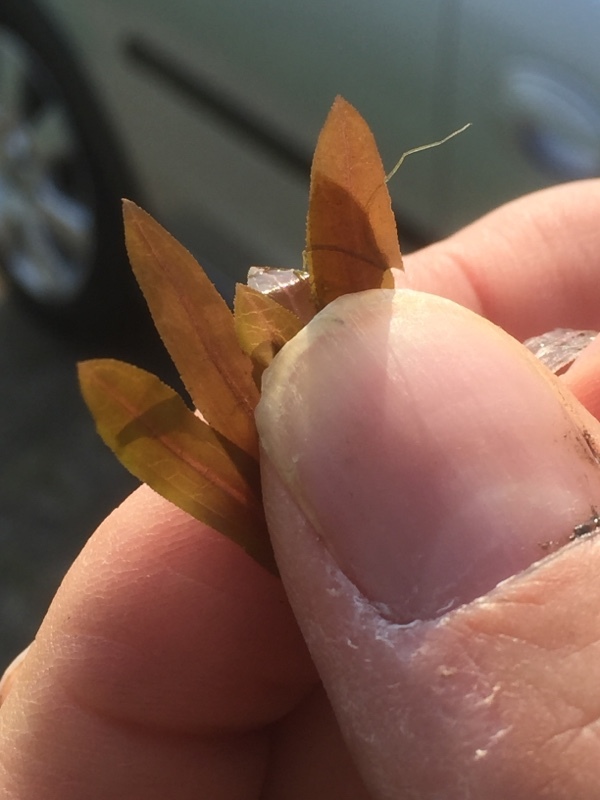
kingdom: Plantae
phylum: Tracheophyta
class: Liliopsida
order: Alismatales
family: Potamogetonaceae
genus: Potamogeton
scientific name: Potamogeton crispus
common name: Curled pondweed
